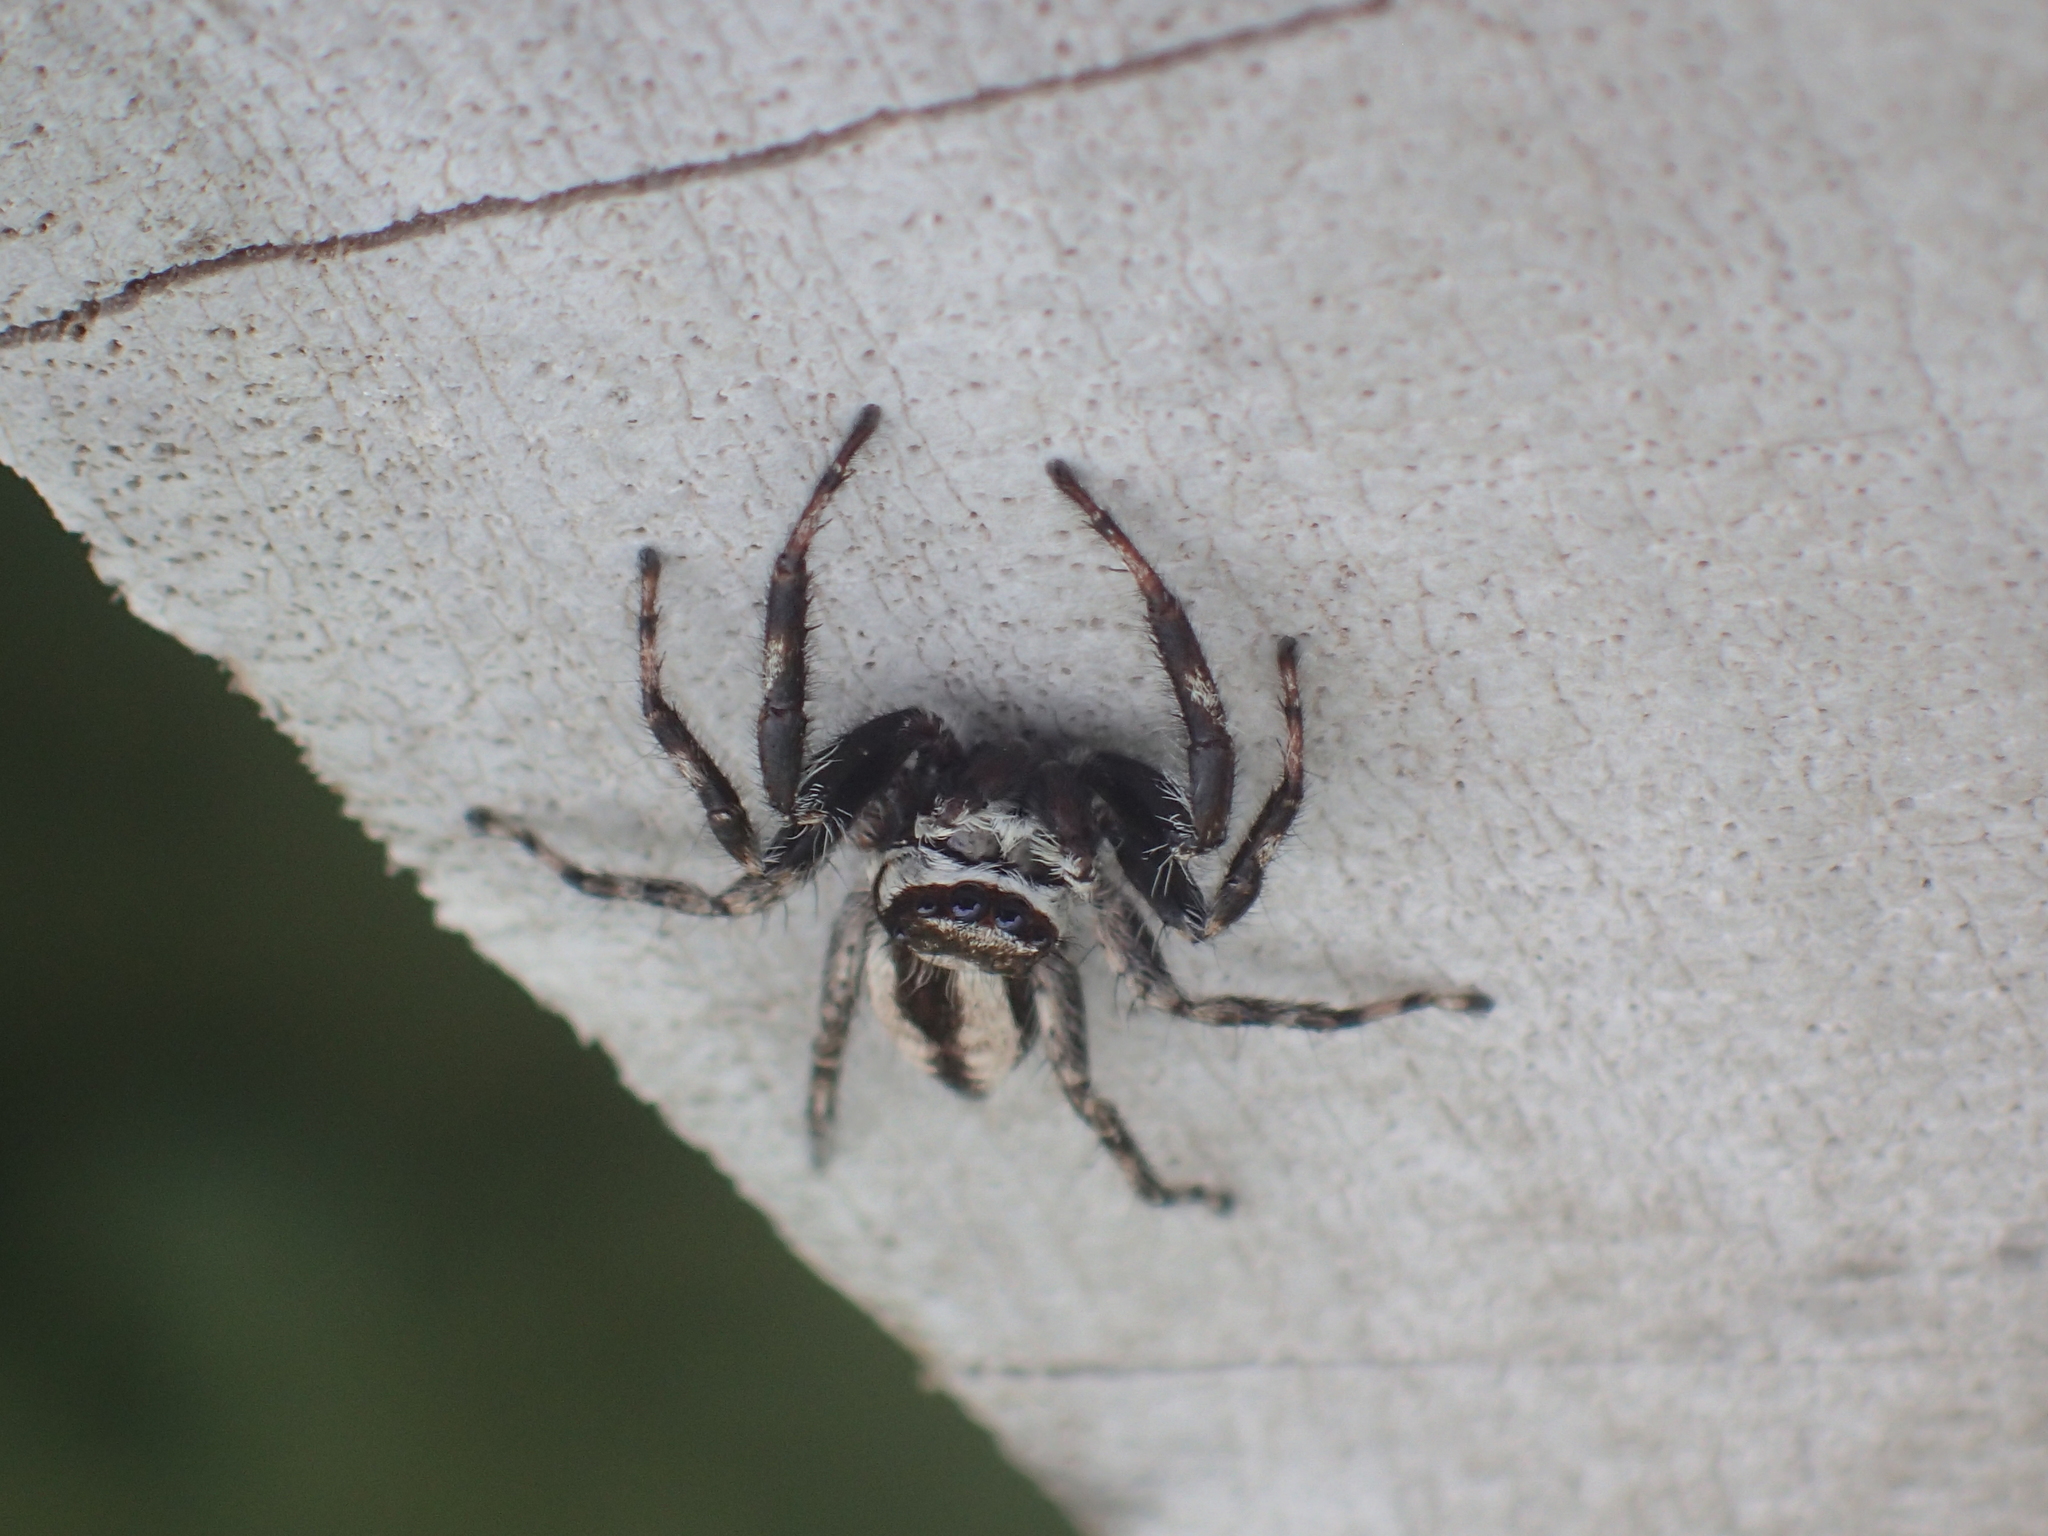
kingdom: Animalia
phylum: Arthropoda
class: Arachnida
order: Araneae
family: Salticidae
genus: Menemerus
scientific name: Menemerus bivittatus
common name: Gray wall jumper
